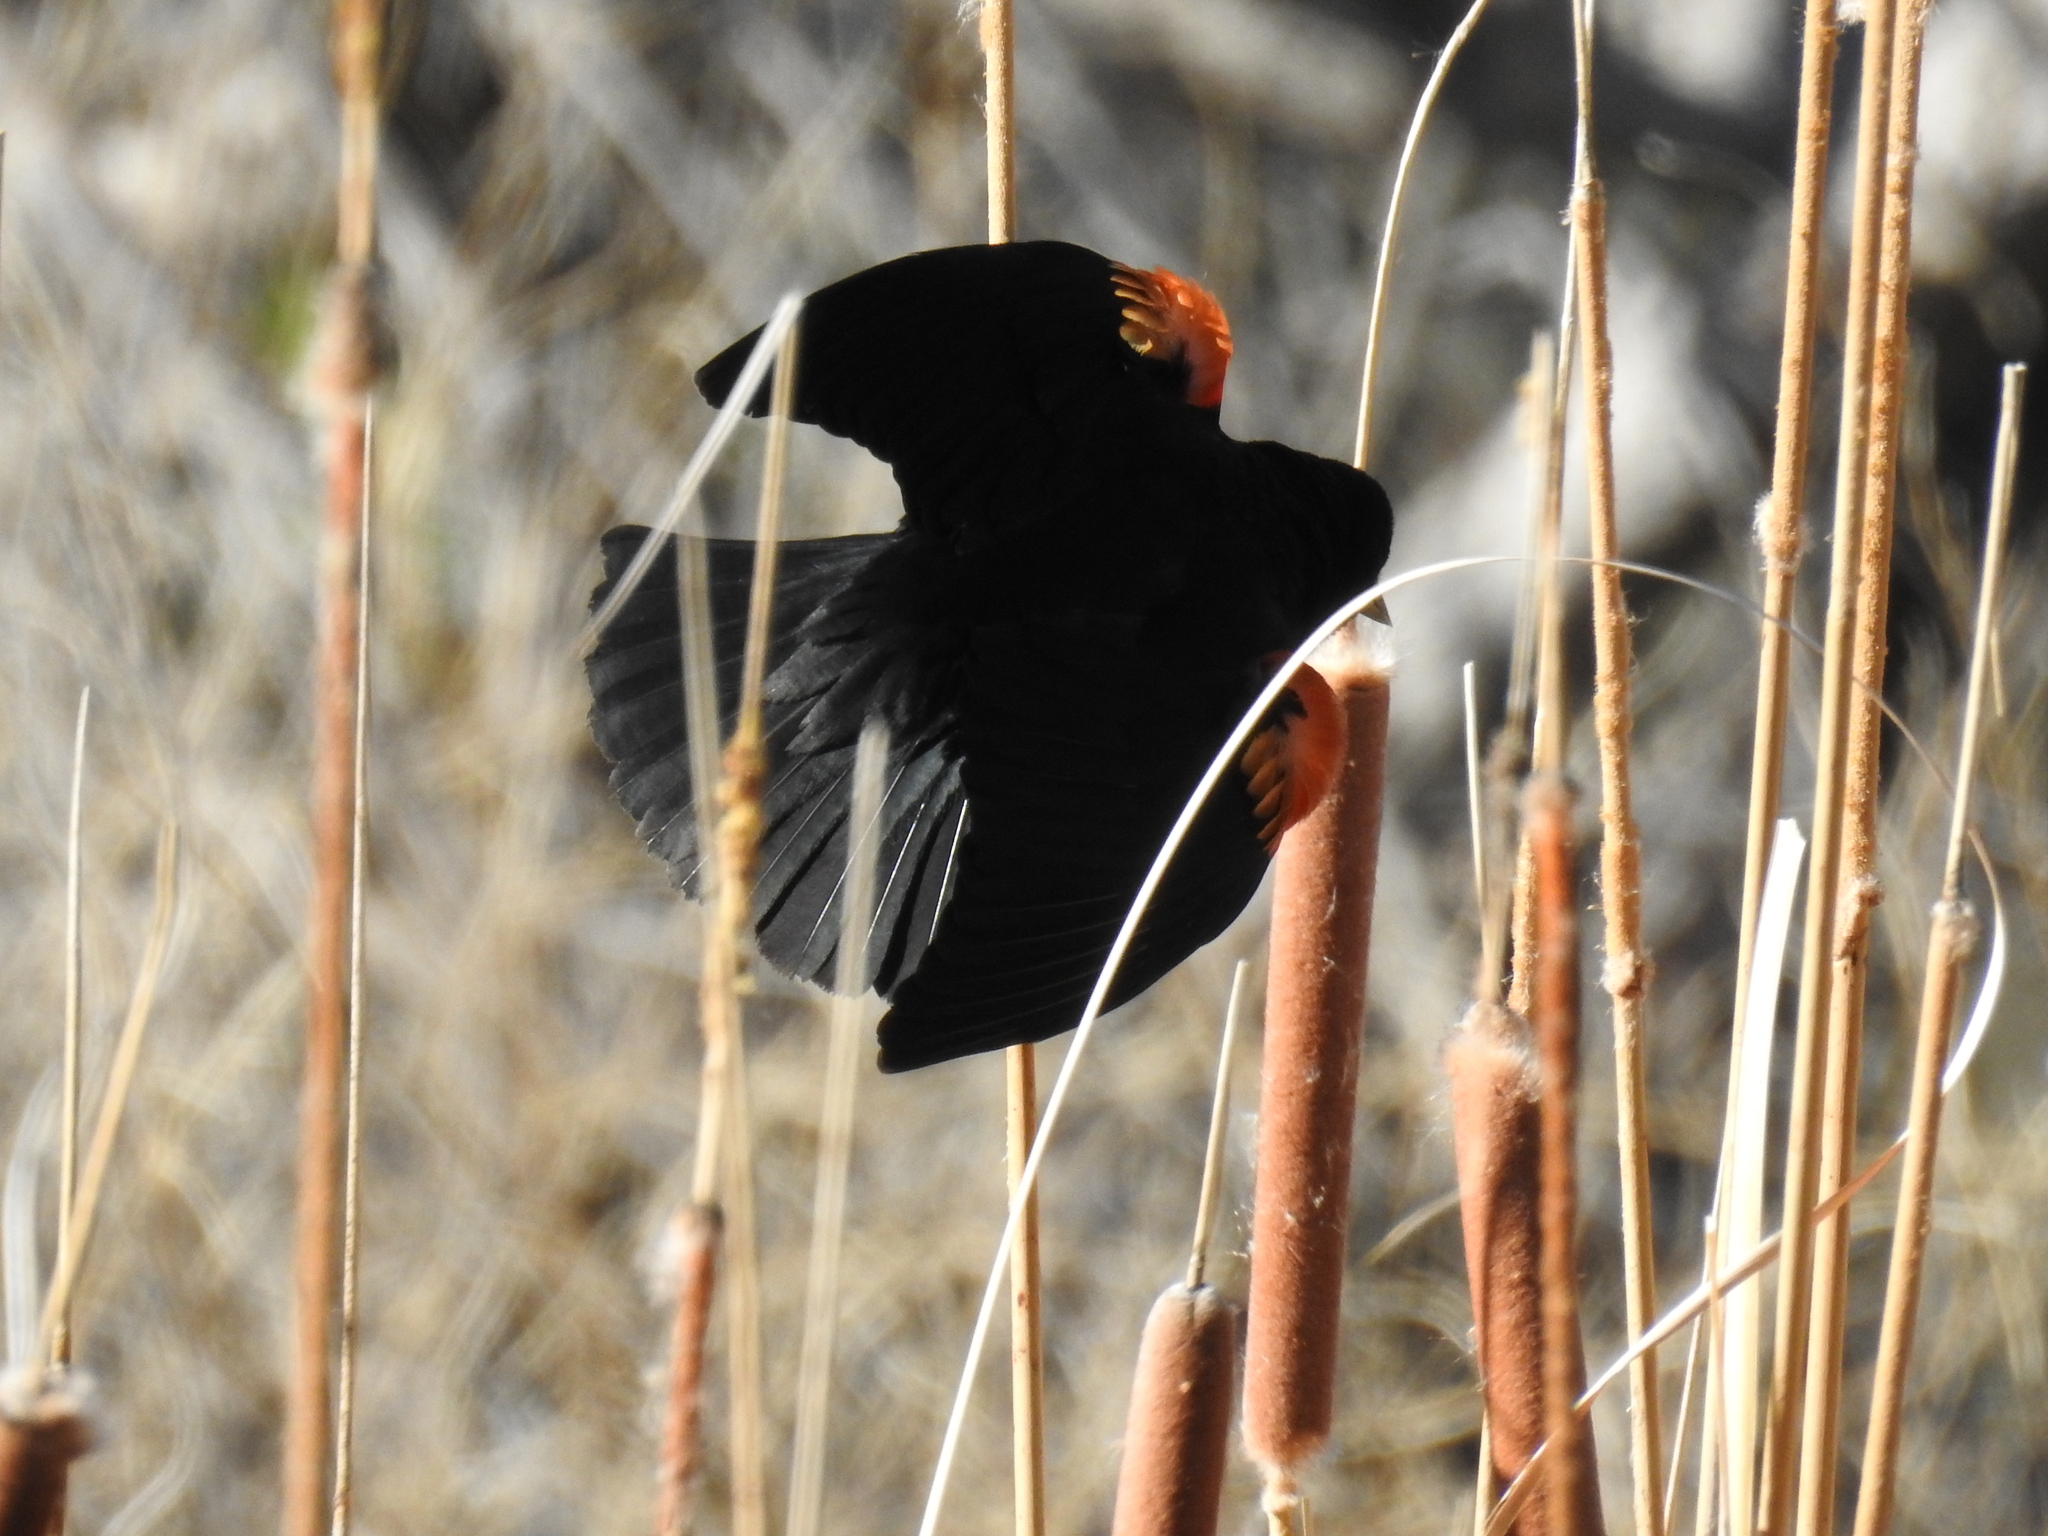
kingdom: Animalia
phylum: Chordata
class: Aves
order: Passeriformes
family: Icteridae
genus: Agelaius
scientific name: Agelaius phoeniceus
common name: Red-winged blackbird
